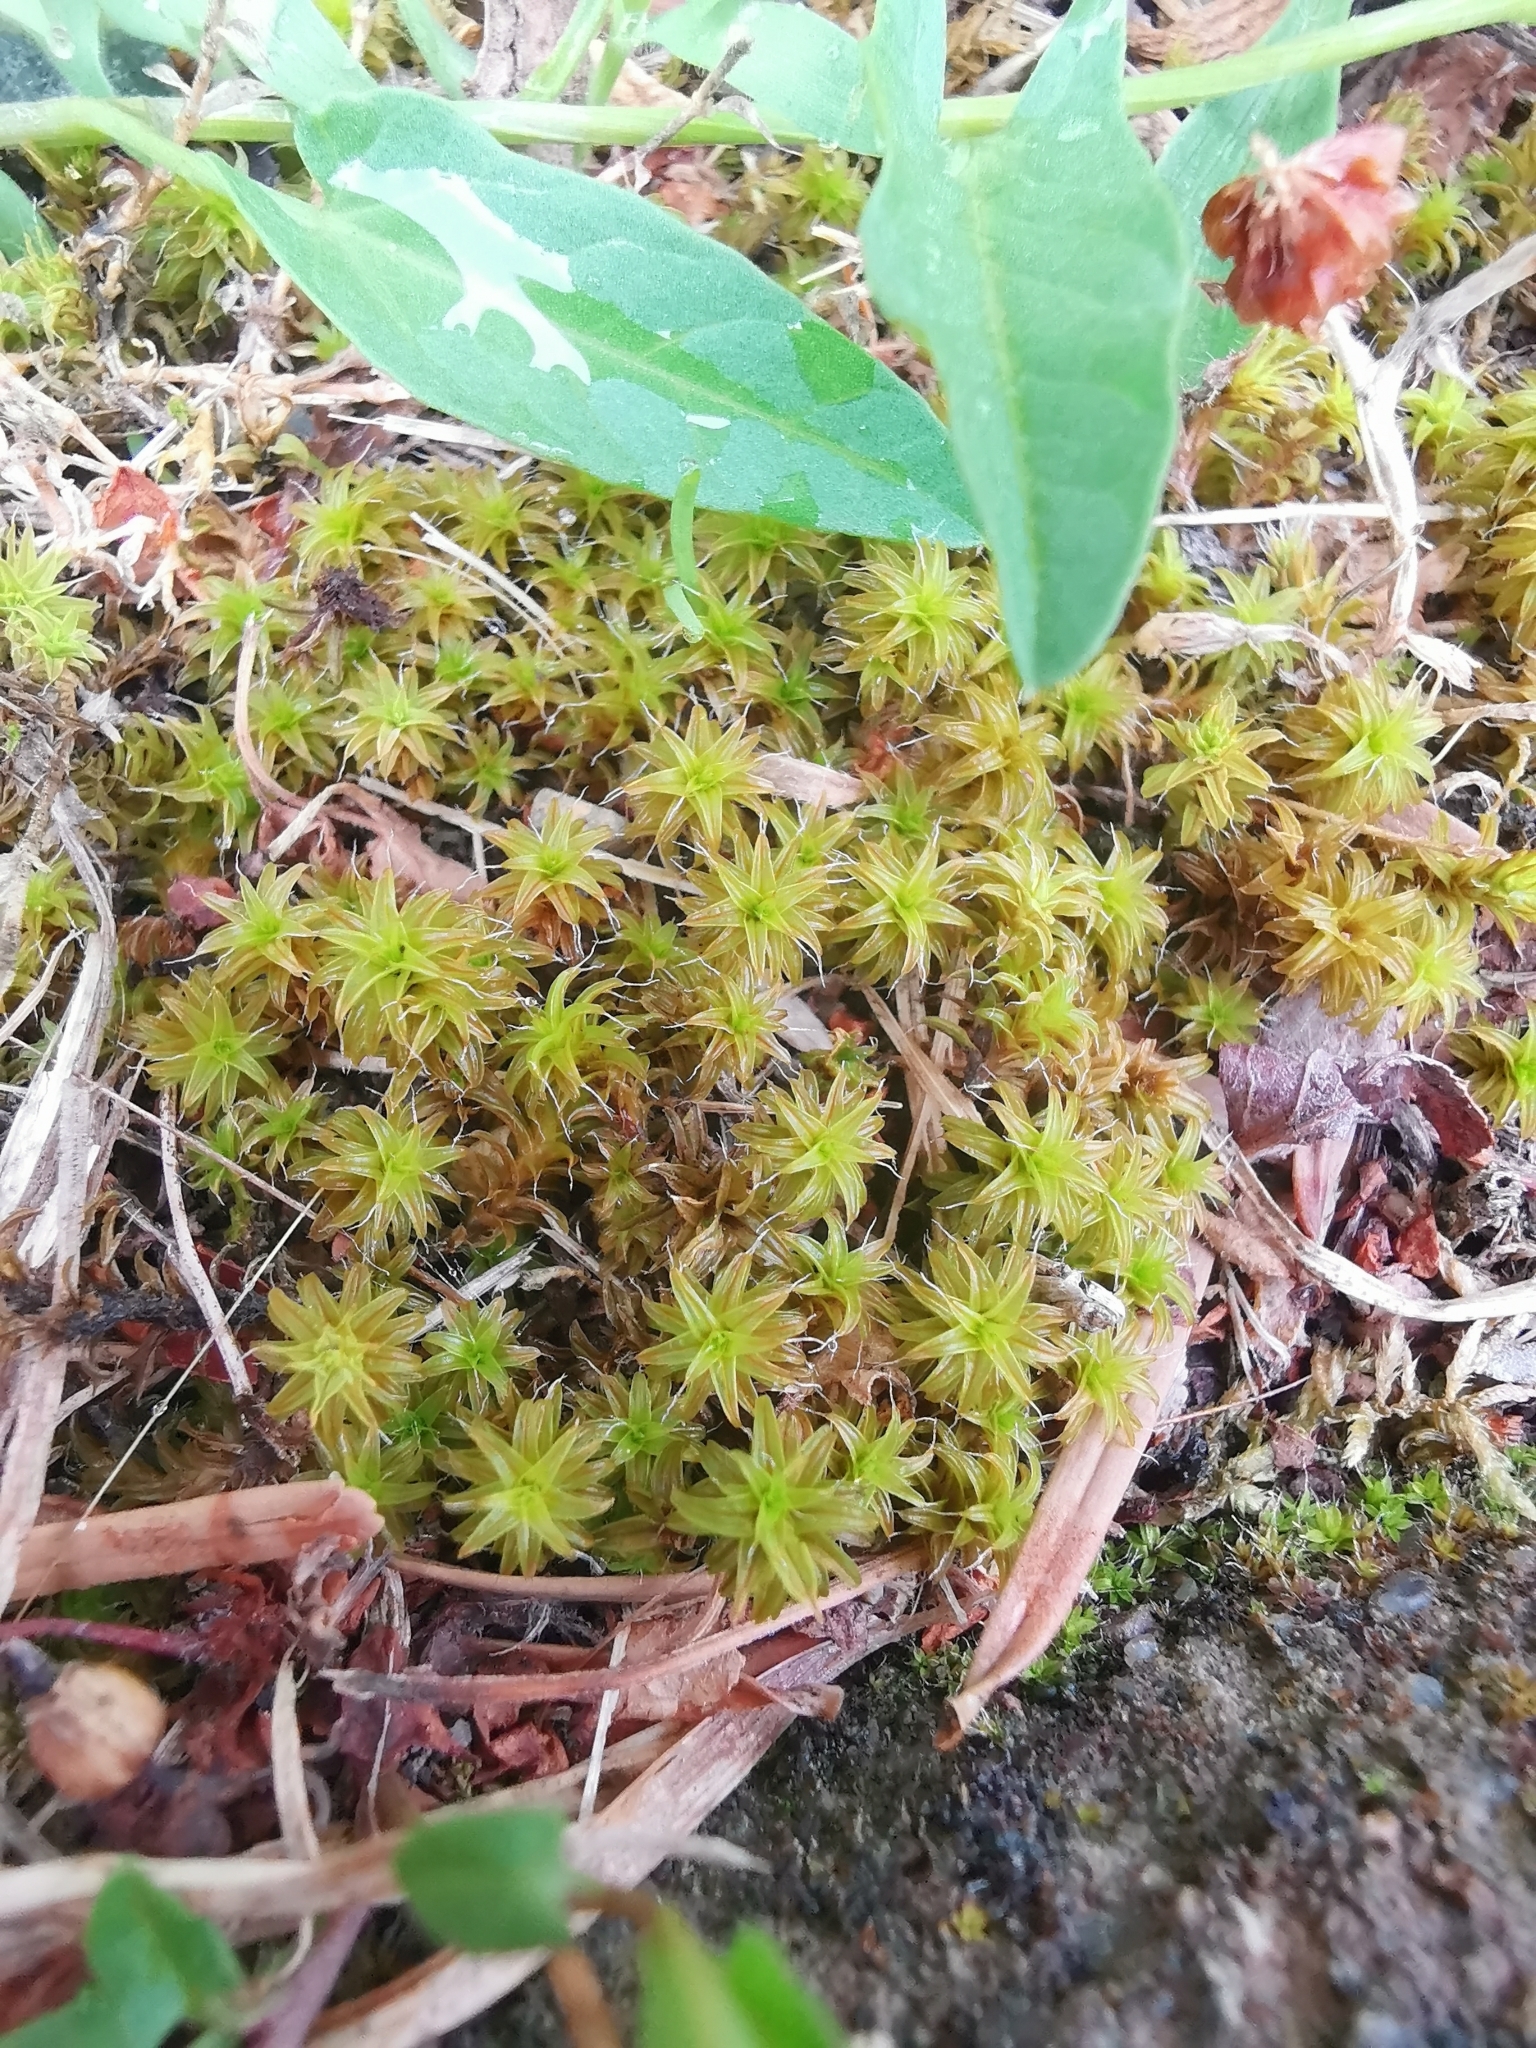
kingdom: Plantae
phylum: Bryophyta
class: Bryopsida
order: Pottiales
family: Pottiaceae
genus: Syntrichia
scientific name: Syntrichia ruralis
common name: Sidewalk screw moss
